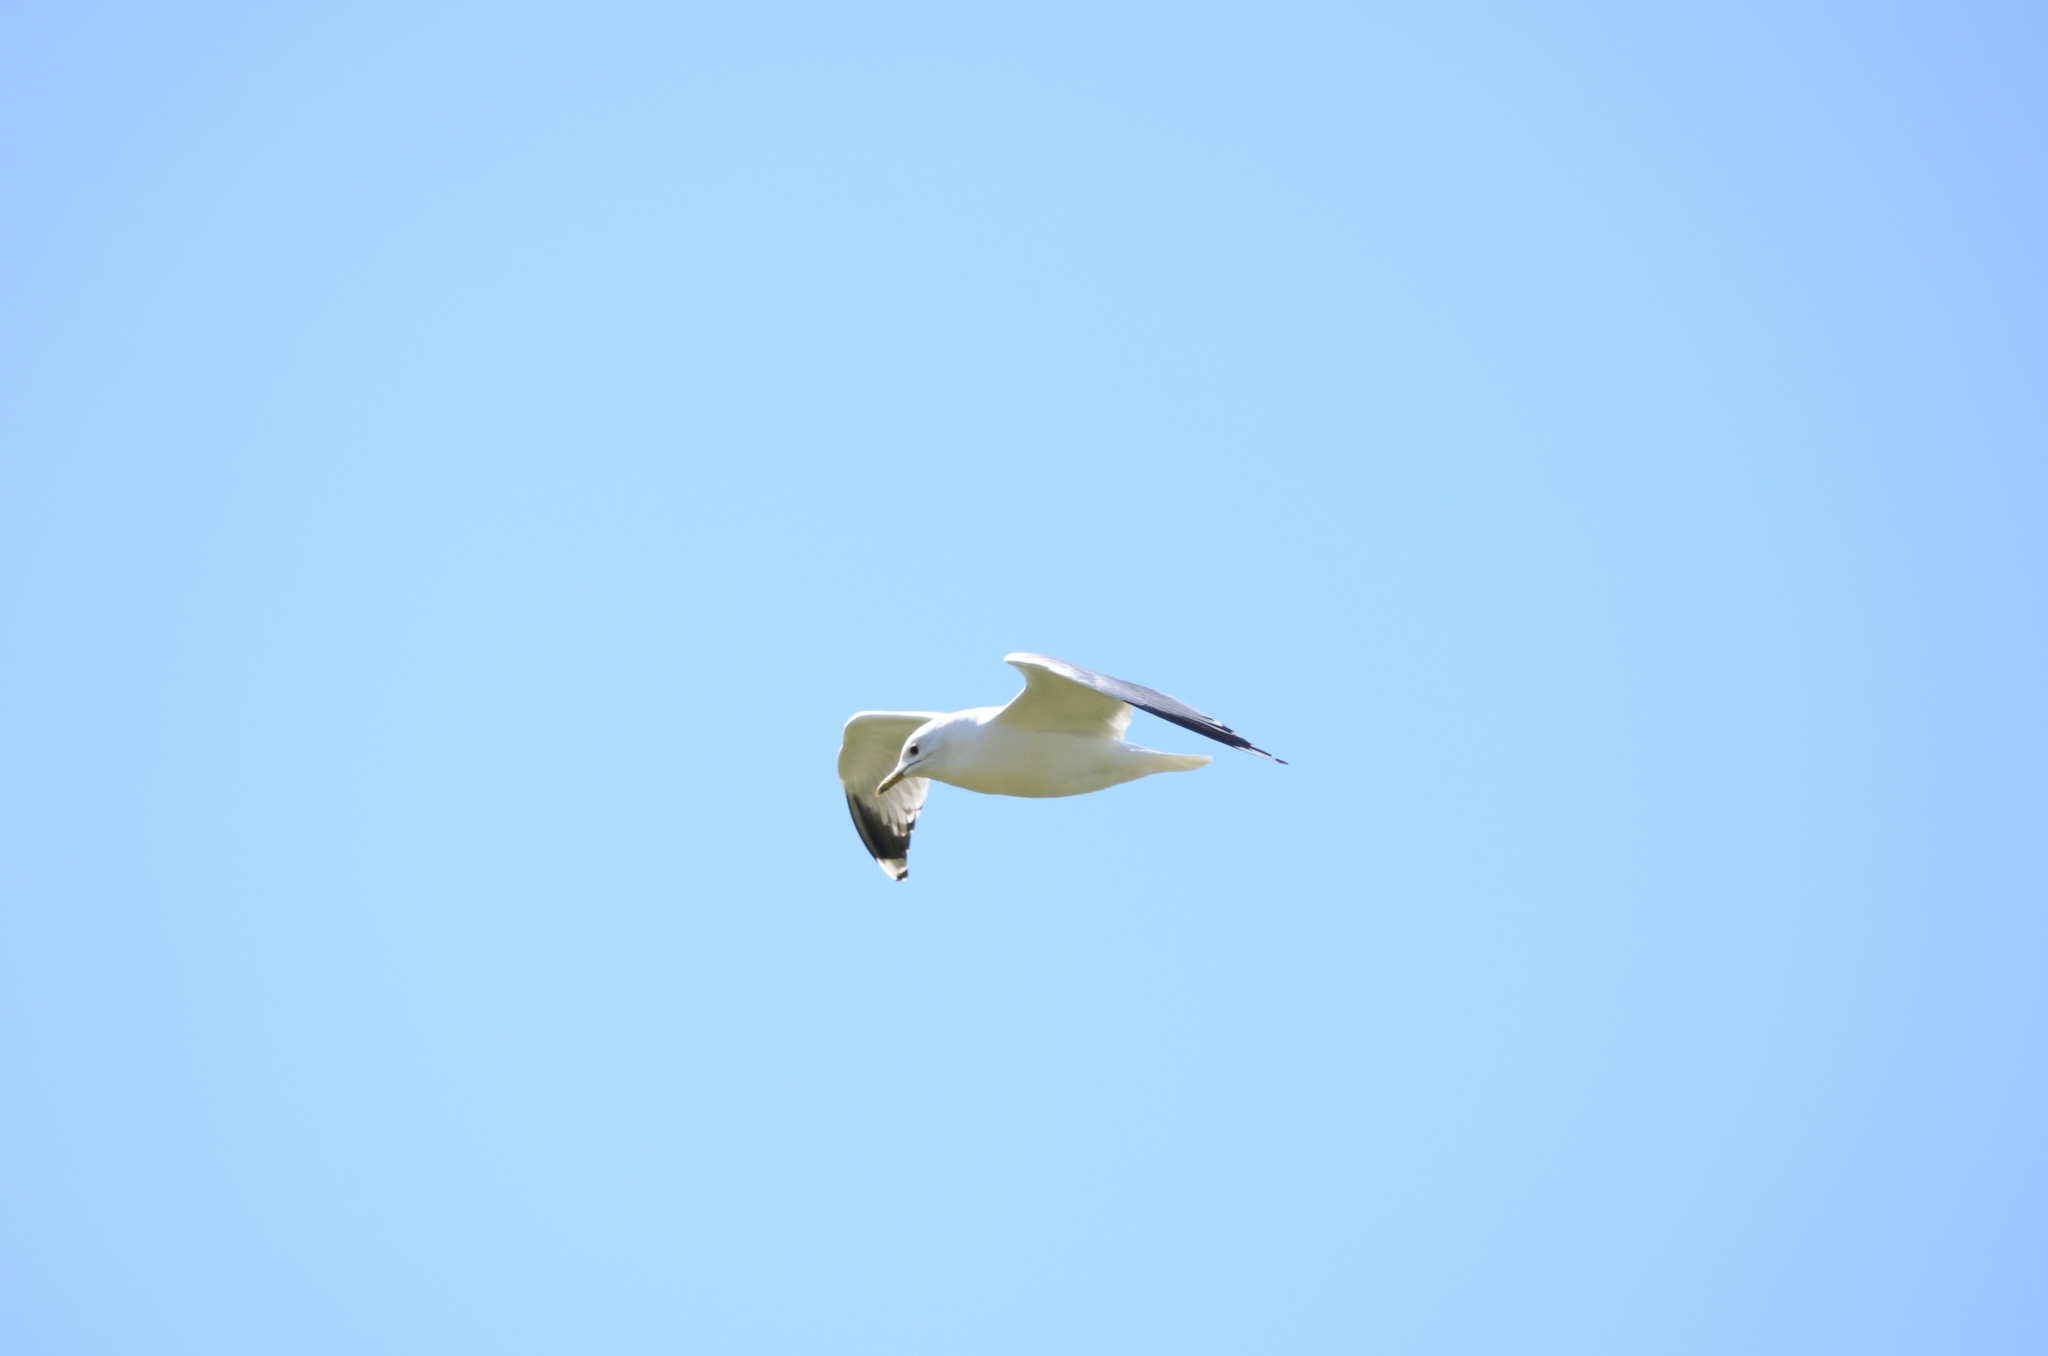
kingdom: Animalia
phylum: Chordata
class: Aves
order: Charadriiformes
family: Laridae
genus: Larus
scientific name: Larus canus
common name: Mew gull
